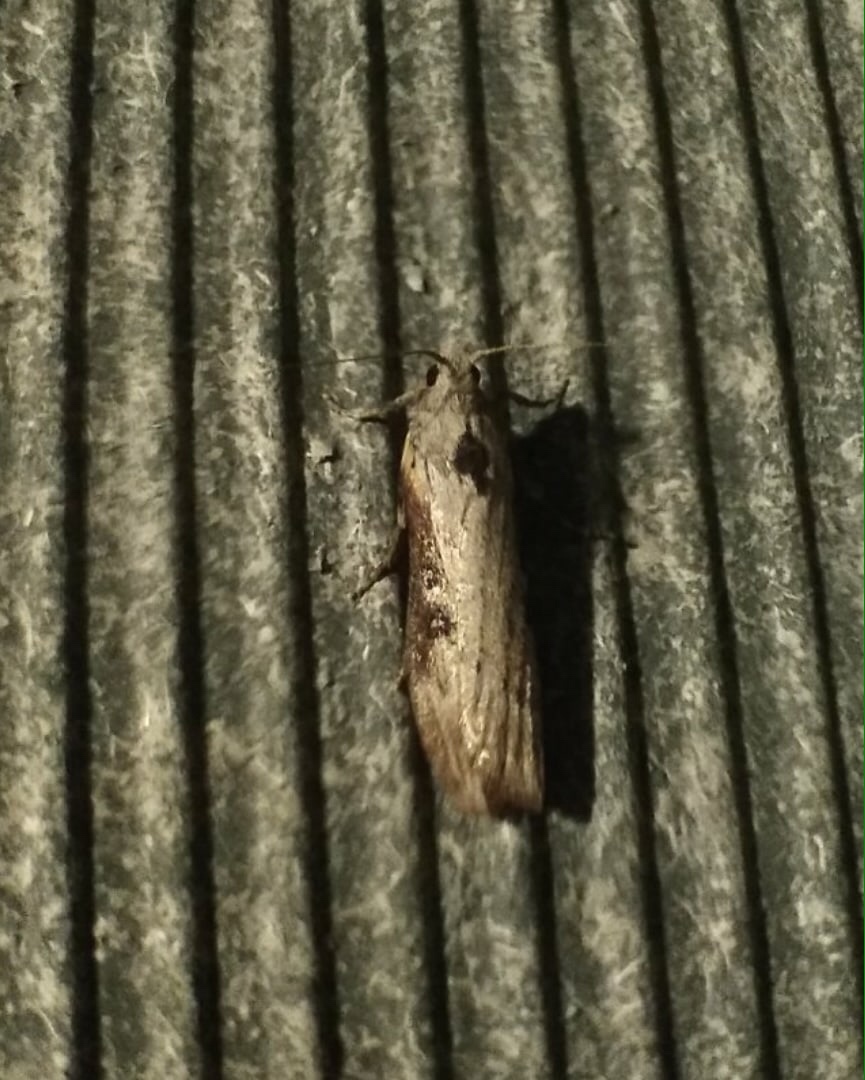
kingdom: Animalia
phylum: Arthropoda
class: Insecta
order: Lepidoptera
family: Pyralidae
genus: Lamoria
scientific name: Lamoria anella
